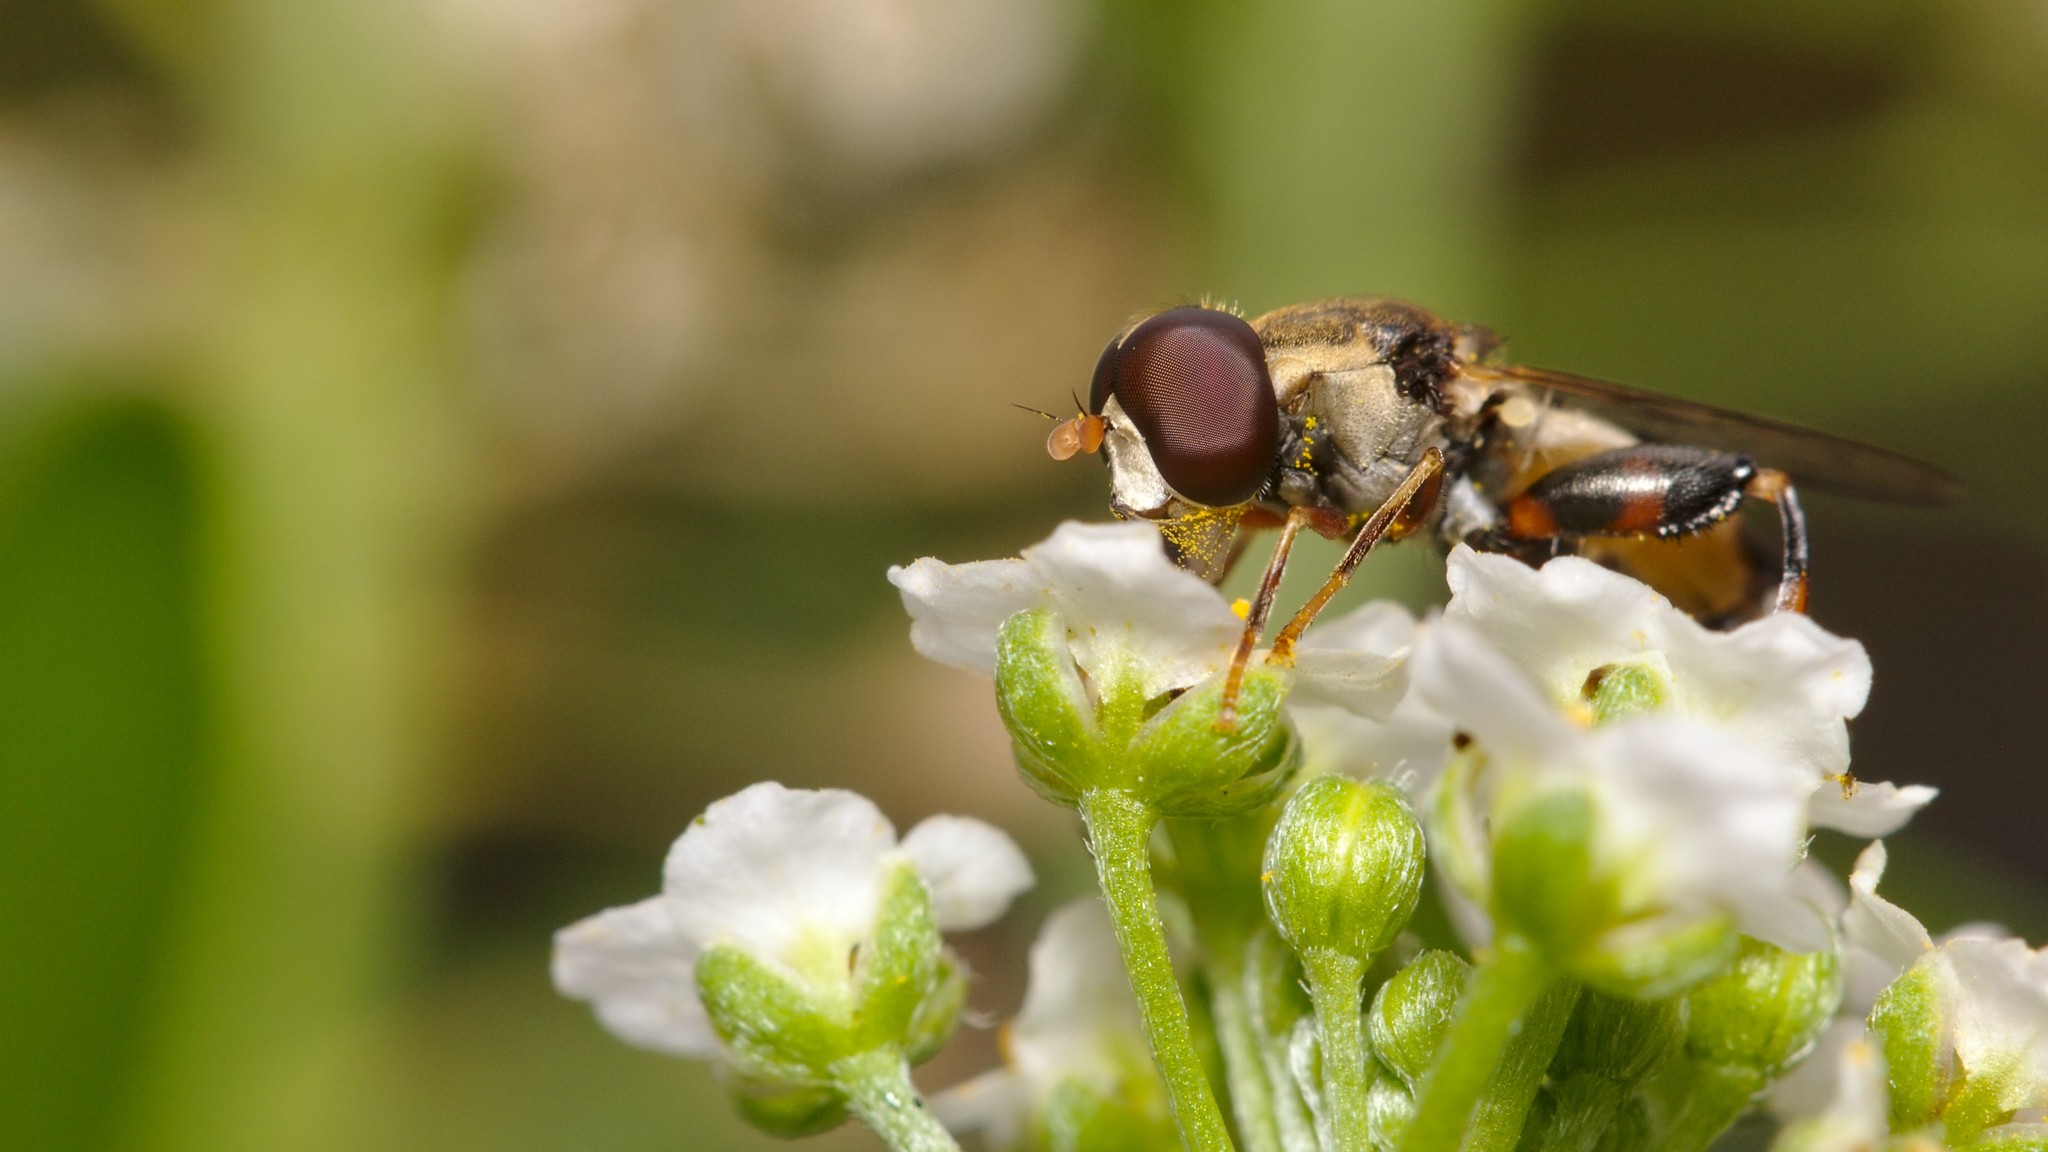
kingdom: Animalia
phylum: Arthropoda
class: Insecta
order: Diptera
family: Syrphidae
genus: Syritta
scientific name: Syritta pipiens
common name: Hover fly
